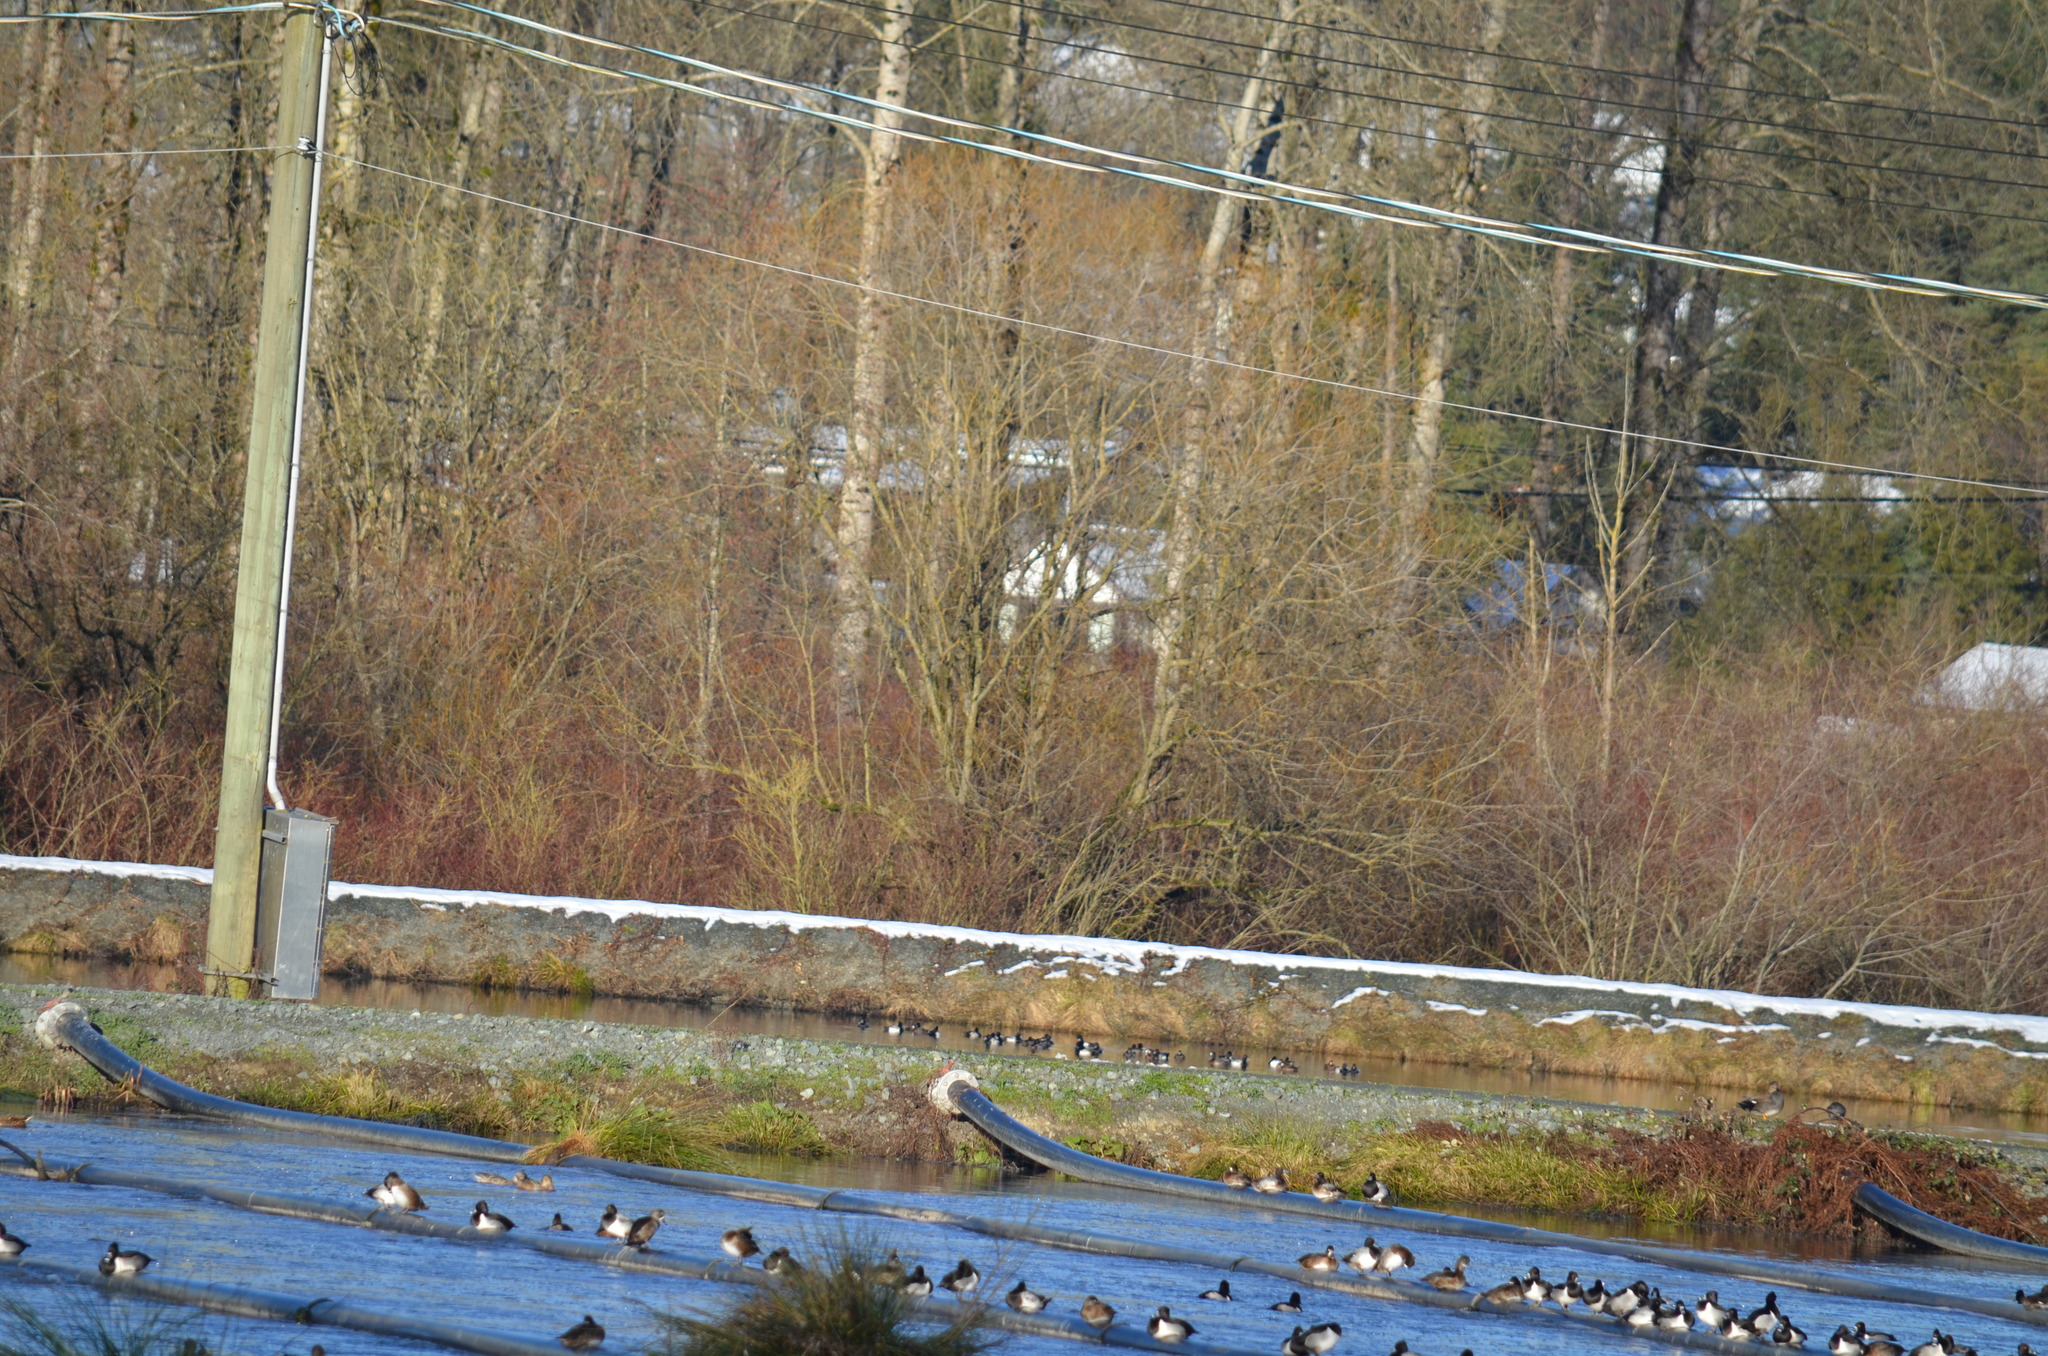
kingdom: Animalia
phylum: Chordata
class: Aves
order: Anseriformes
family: Anatidae
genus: Mareca
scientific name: Mareca strepera
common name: Gadwall
